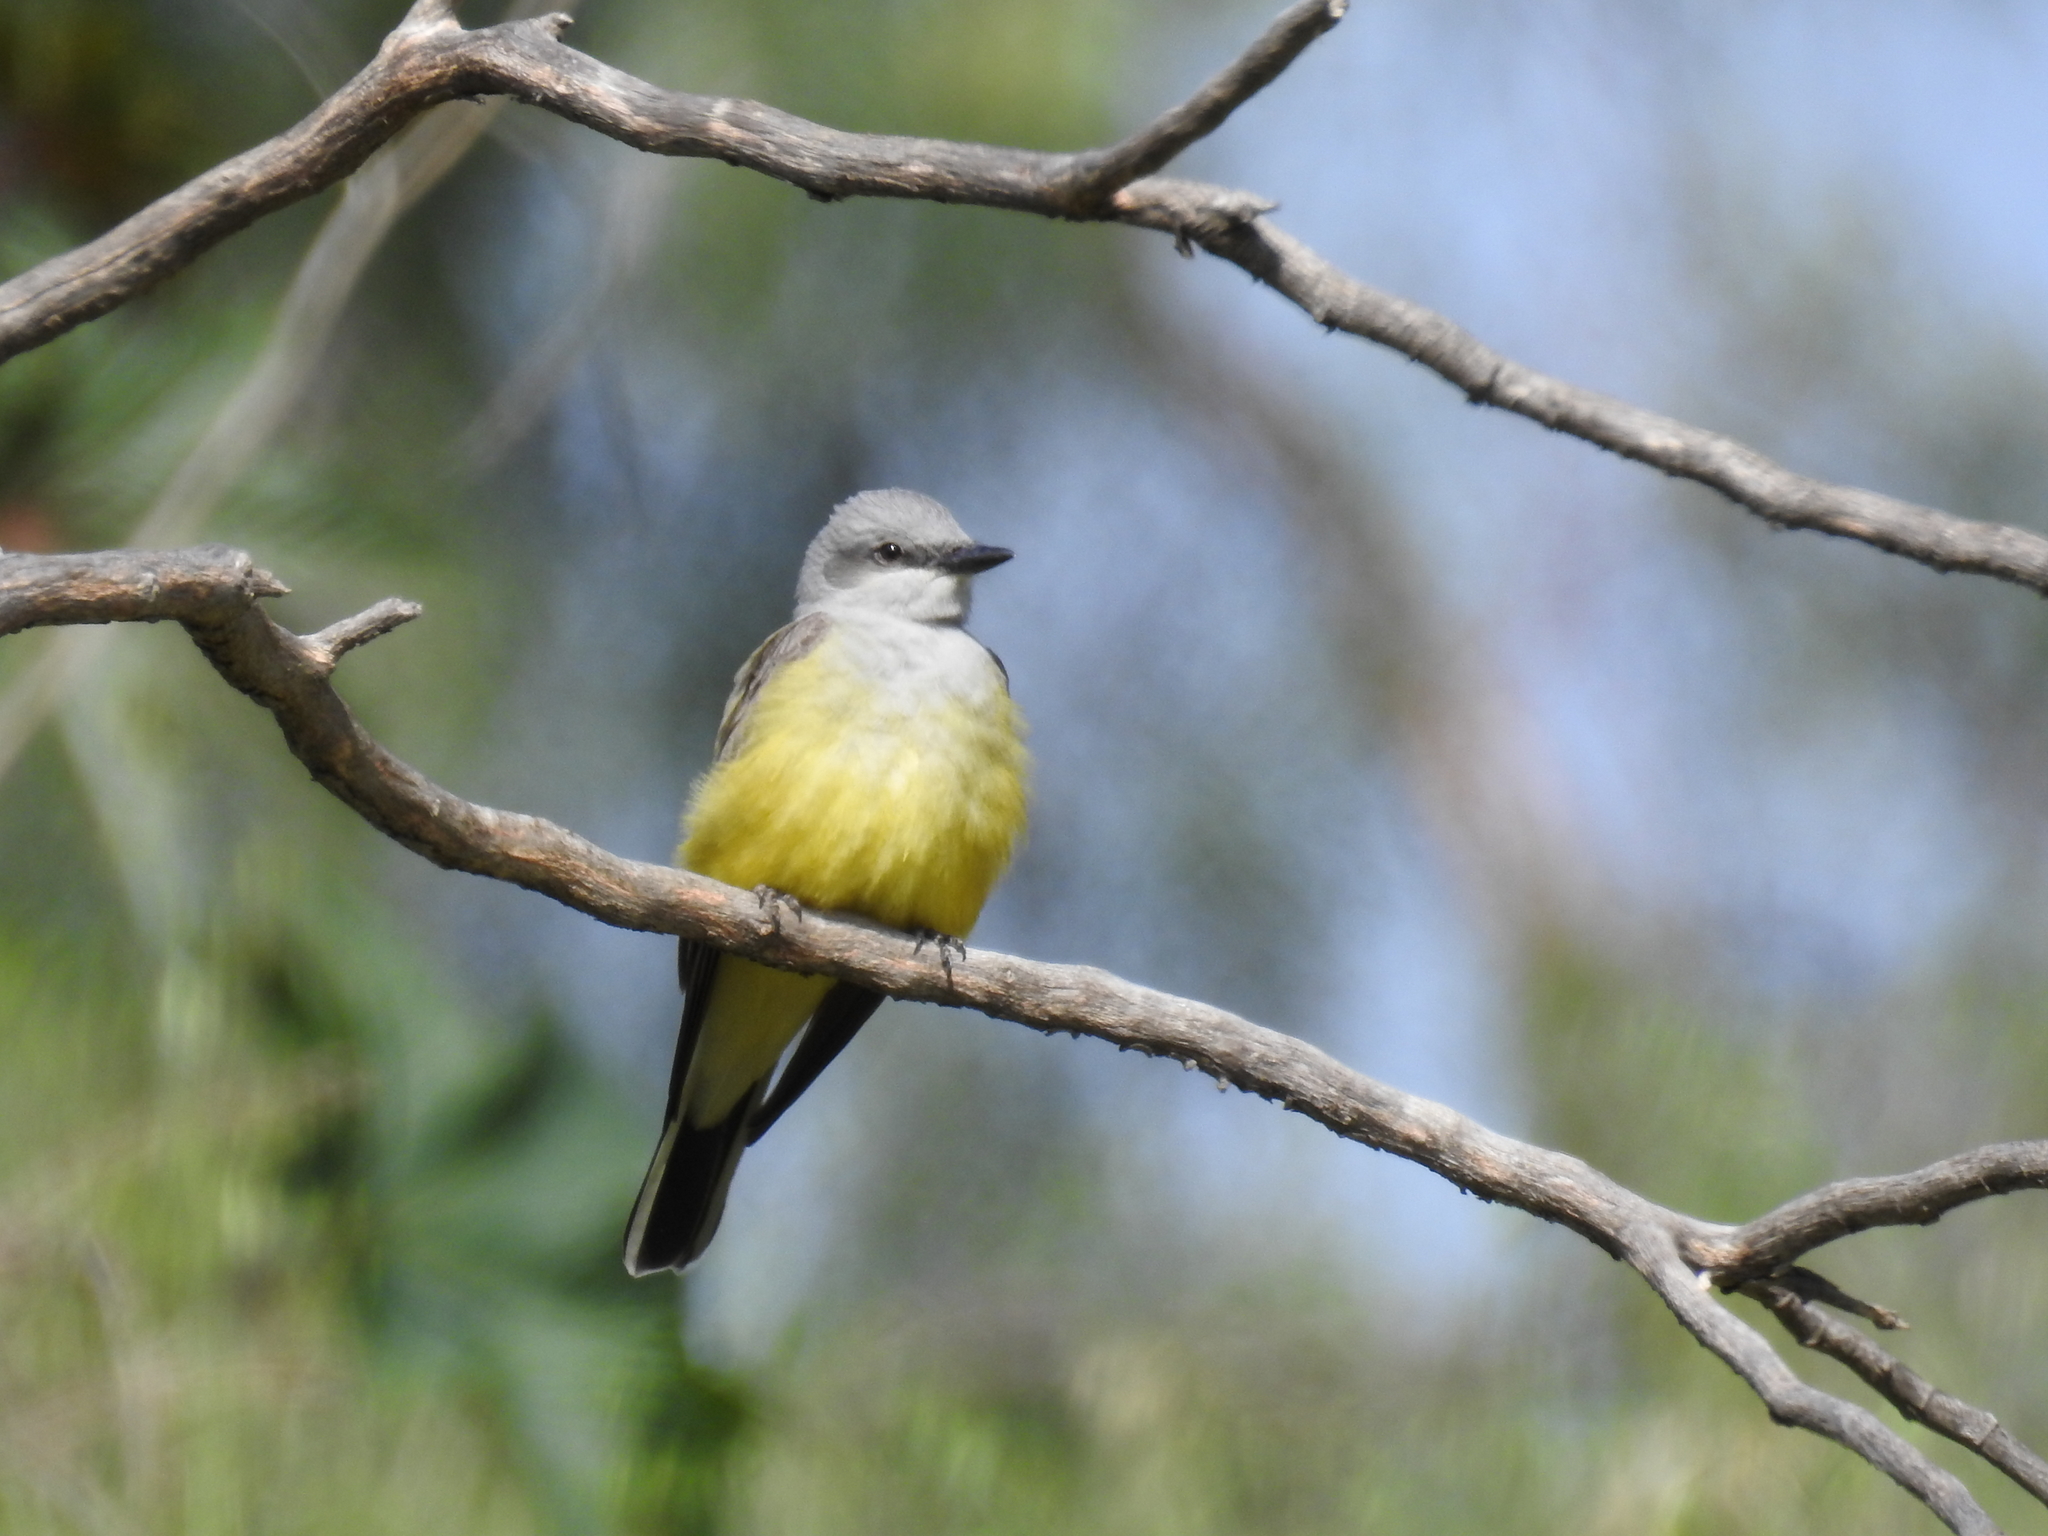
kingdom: Animalia
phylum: Chordata
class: Aves
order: Passeriformes
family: Tyrannidae
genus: Tyrannus
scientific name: Tyrannus verticalis
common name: Western kingbird
